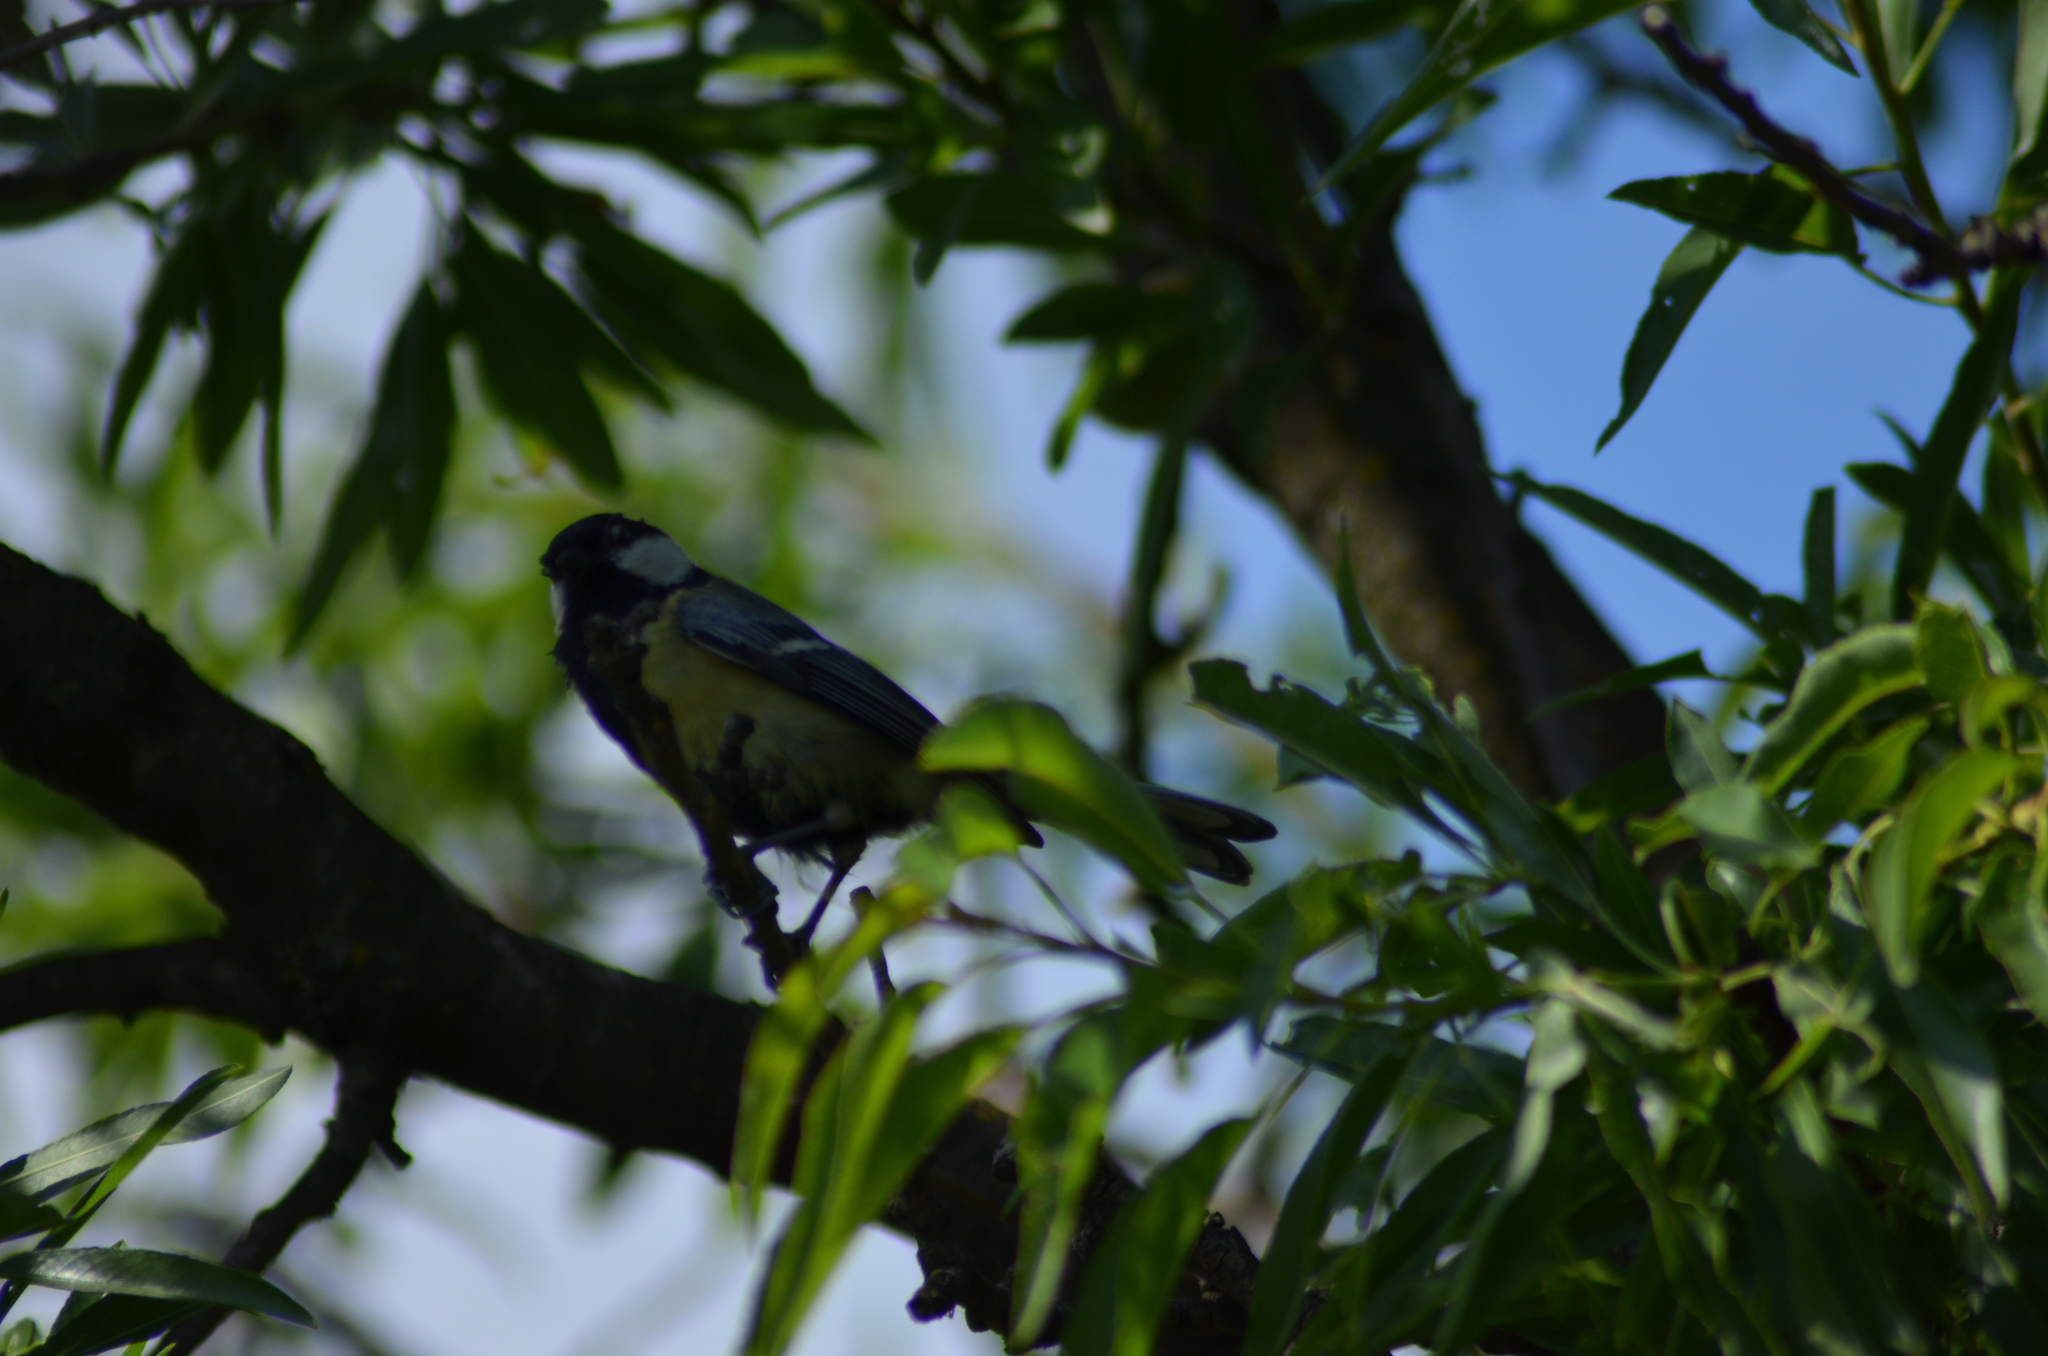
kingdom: Animalia
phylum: Chordata
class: Aves
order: Passeriformes
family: Paridae
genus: Parus
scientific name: Parus major
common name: Great tit
